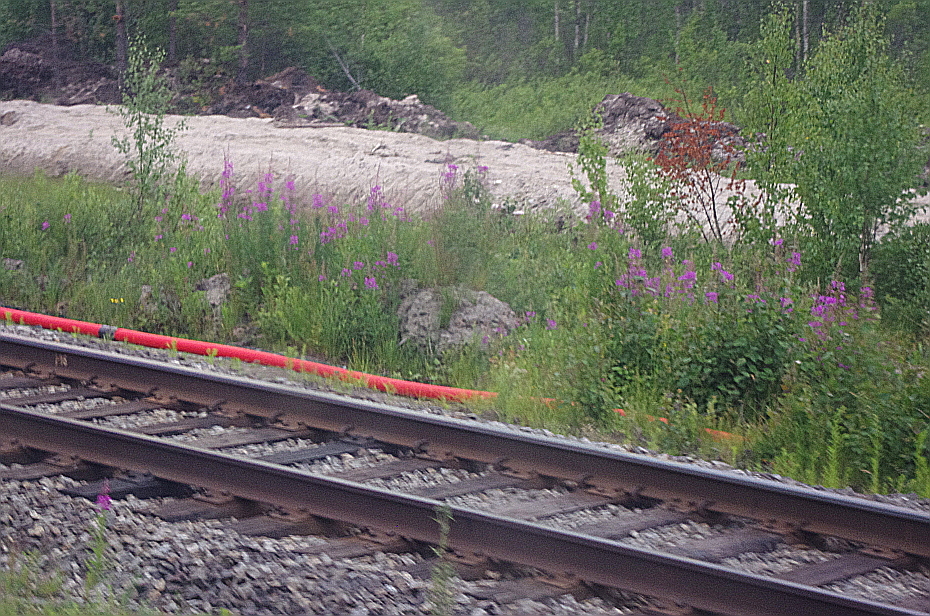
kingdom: Plantae
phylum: Tracheophyta
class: Magnoliopsida
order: Myrtales
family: Onagraceae
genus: Chamaenerion
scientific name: Chamaenerion angustifolium
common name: Fireweed
